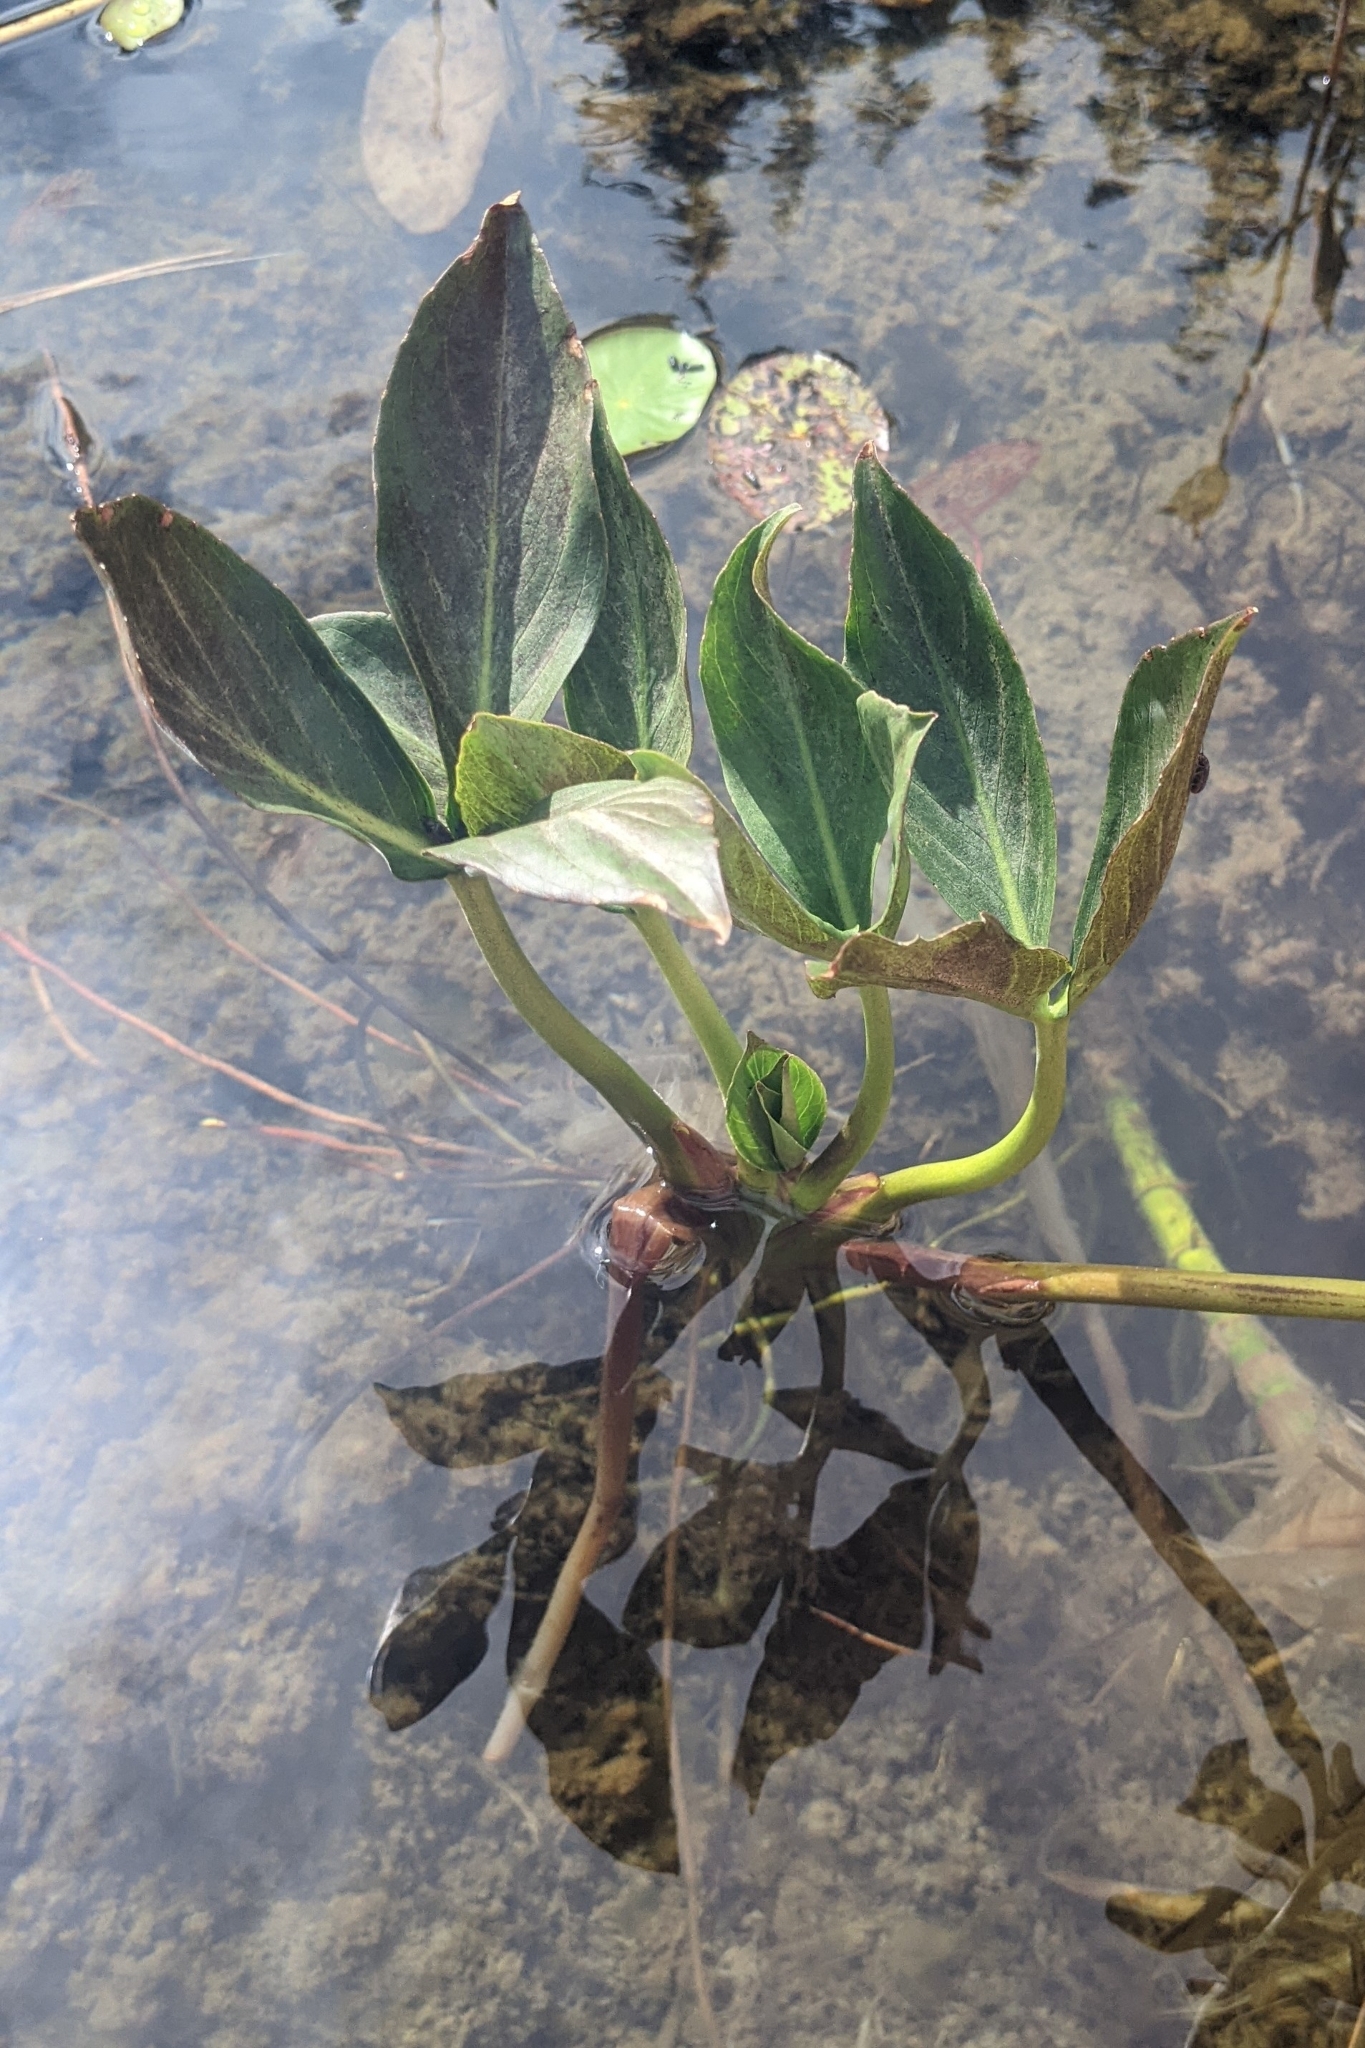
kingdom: Plantae
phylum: Tracheophyta
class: Magnoliopsida
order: Asterales
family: Menyanthaceae
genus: Menyanthes
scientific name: Menyanthes trifoliata
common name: Bogbean
